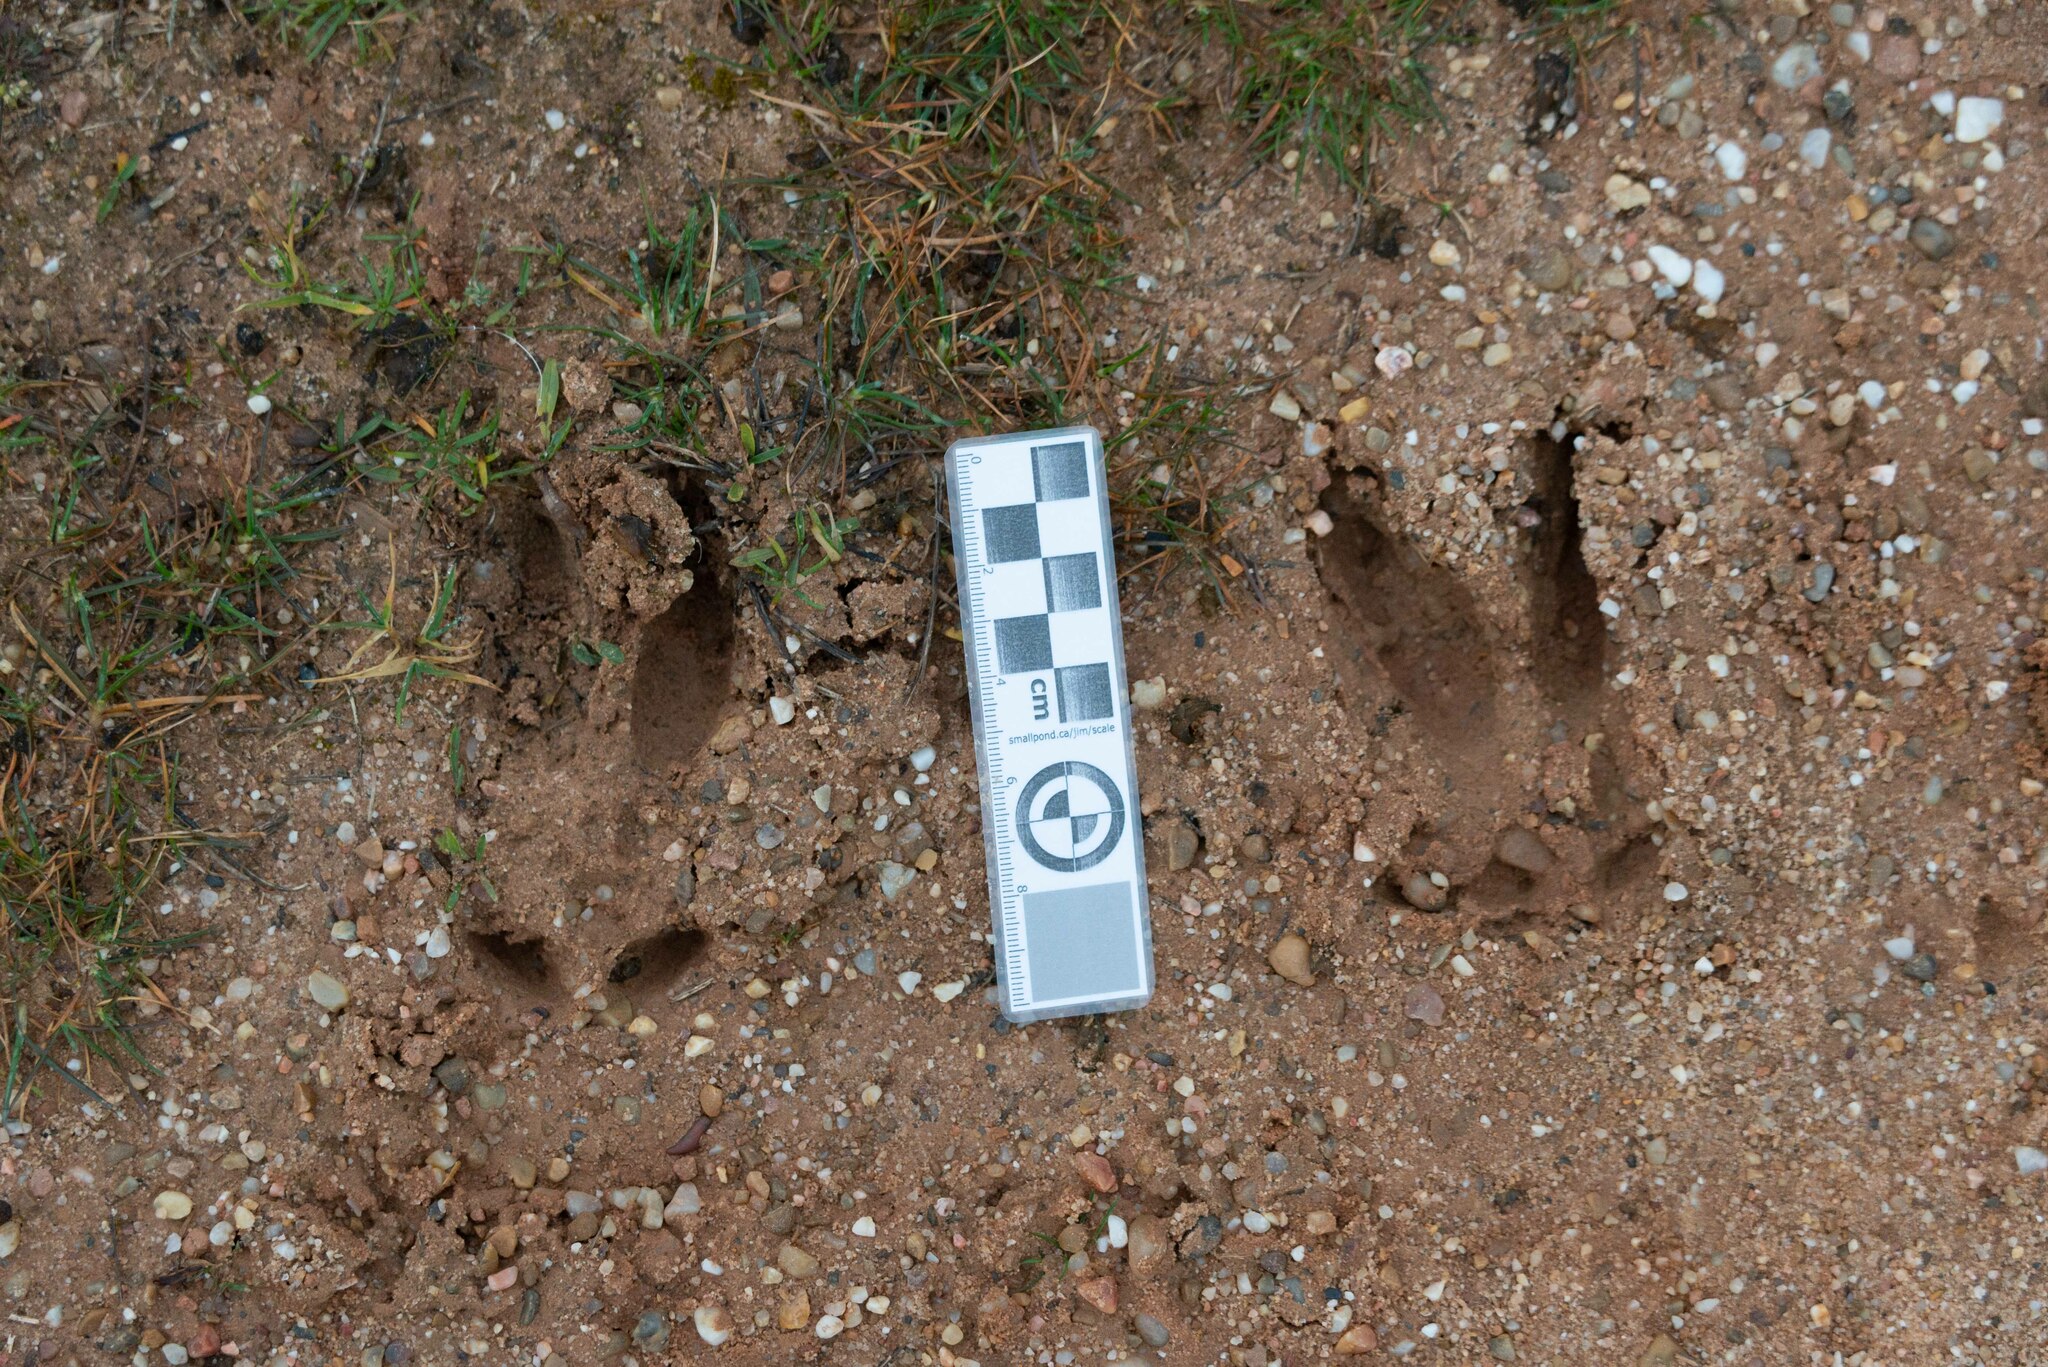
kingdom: Animalia
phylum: Chordata
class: Mammalia
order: Artiodactyla
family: Cervidae
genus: Capreolus
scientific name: Capreolus capreolus
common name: Western roe deer
